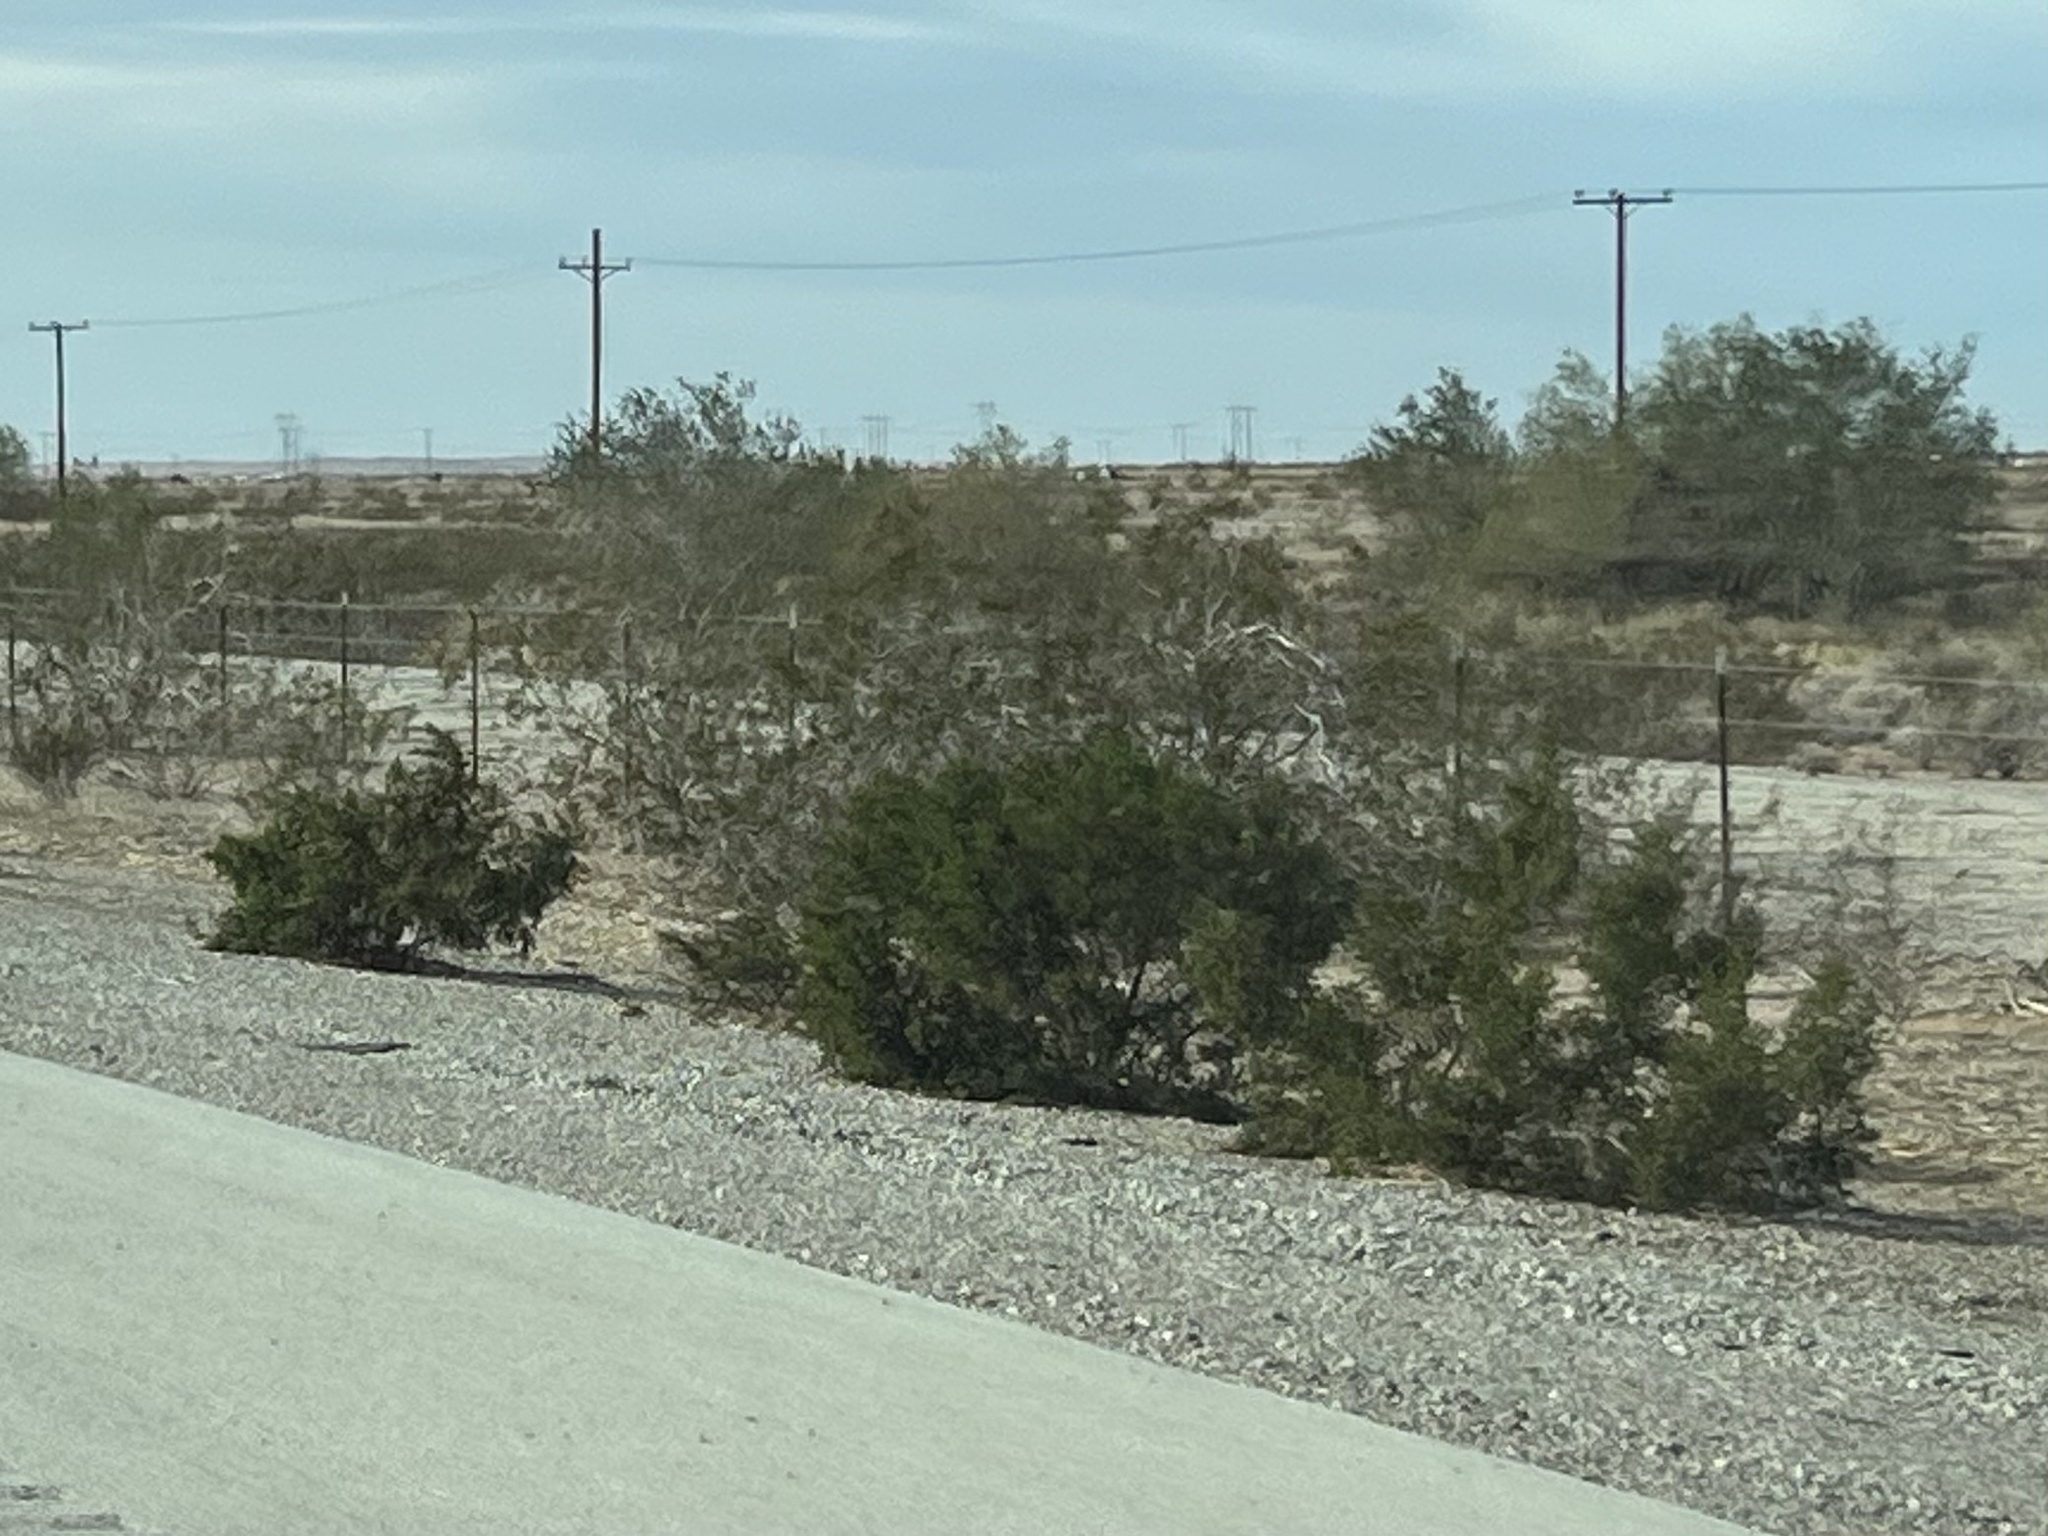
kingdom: Plantae
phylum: Tracheophyta
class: Magnoliopsida
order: Zygophyllales
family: Zygophyllaceae
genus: Larrea
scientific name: Larrea tridentata
